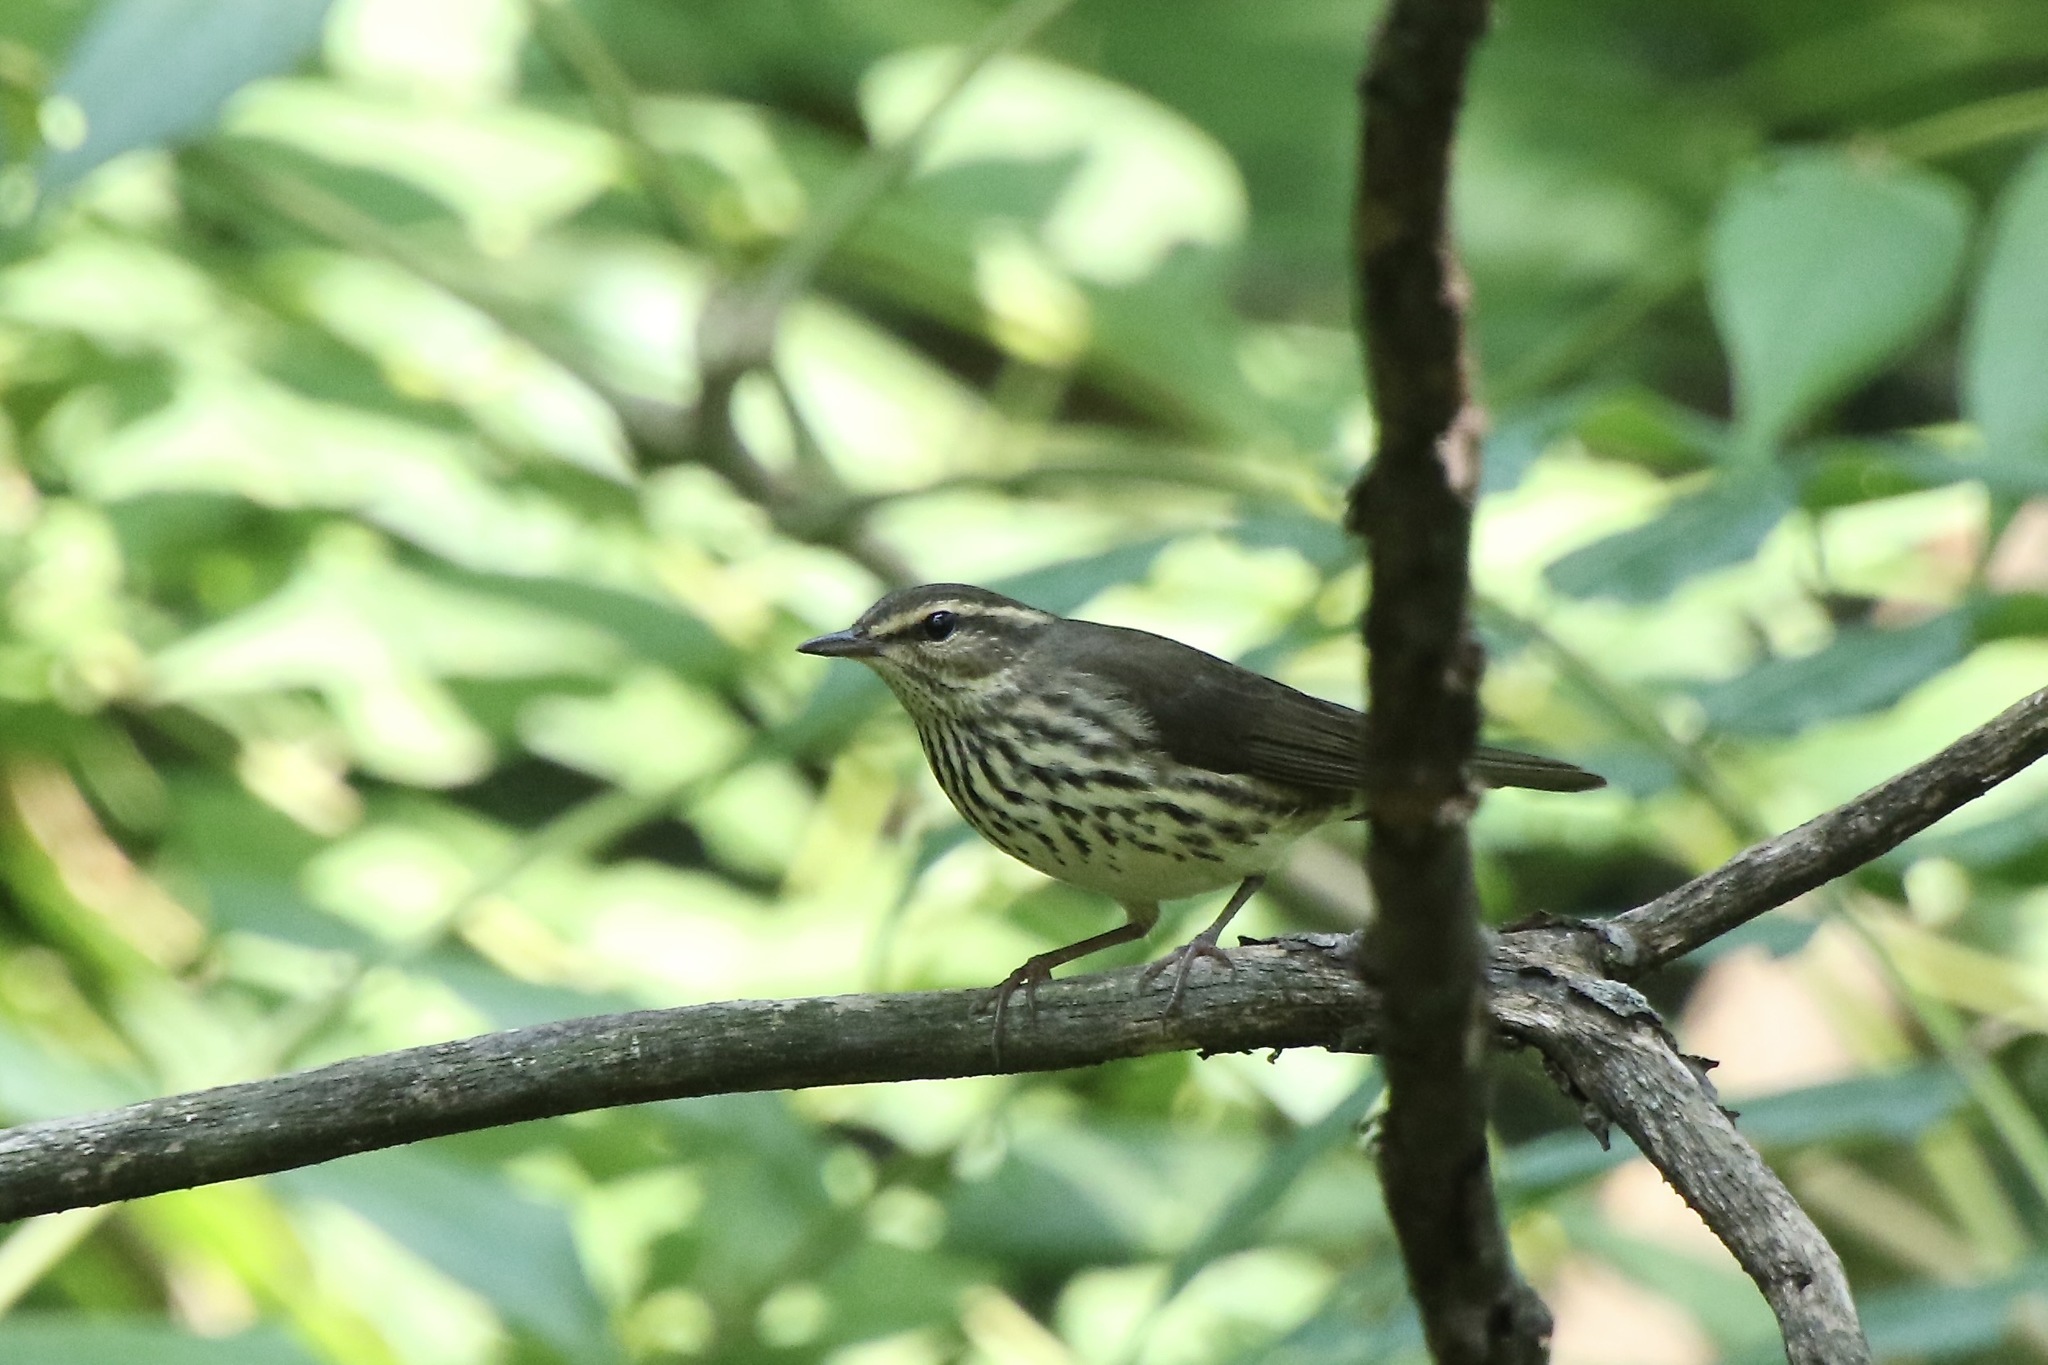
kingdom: Animalia
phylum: Chordata
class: Aves
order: Passeriformes
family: Parulidae
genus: Parkesia
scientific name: Parkesia noveboracensis
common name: Northern waterthrush
